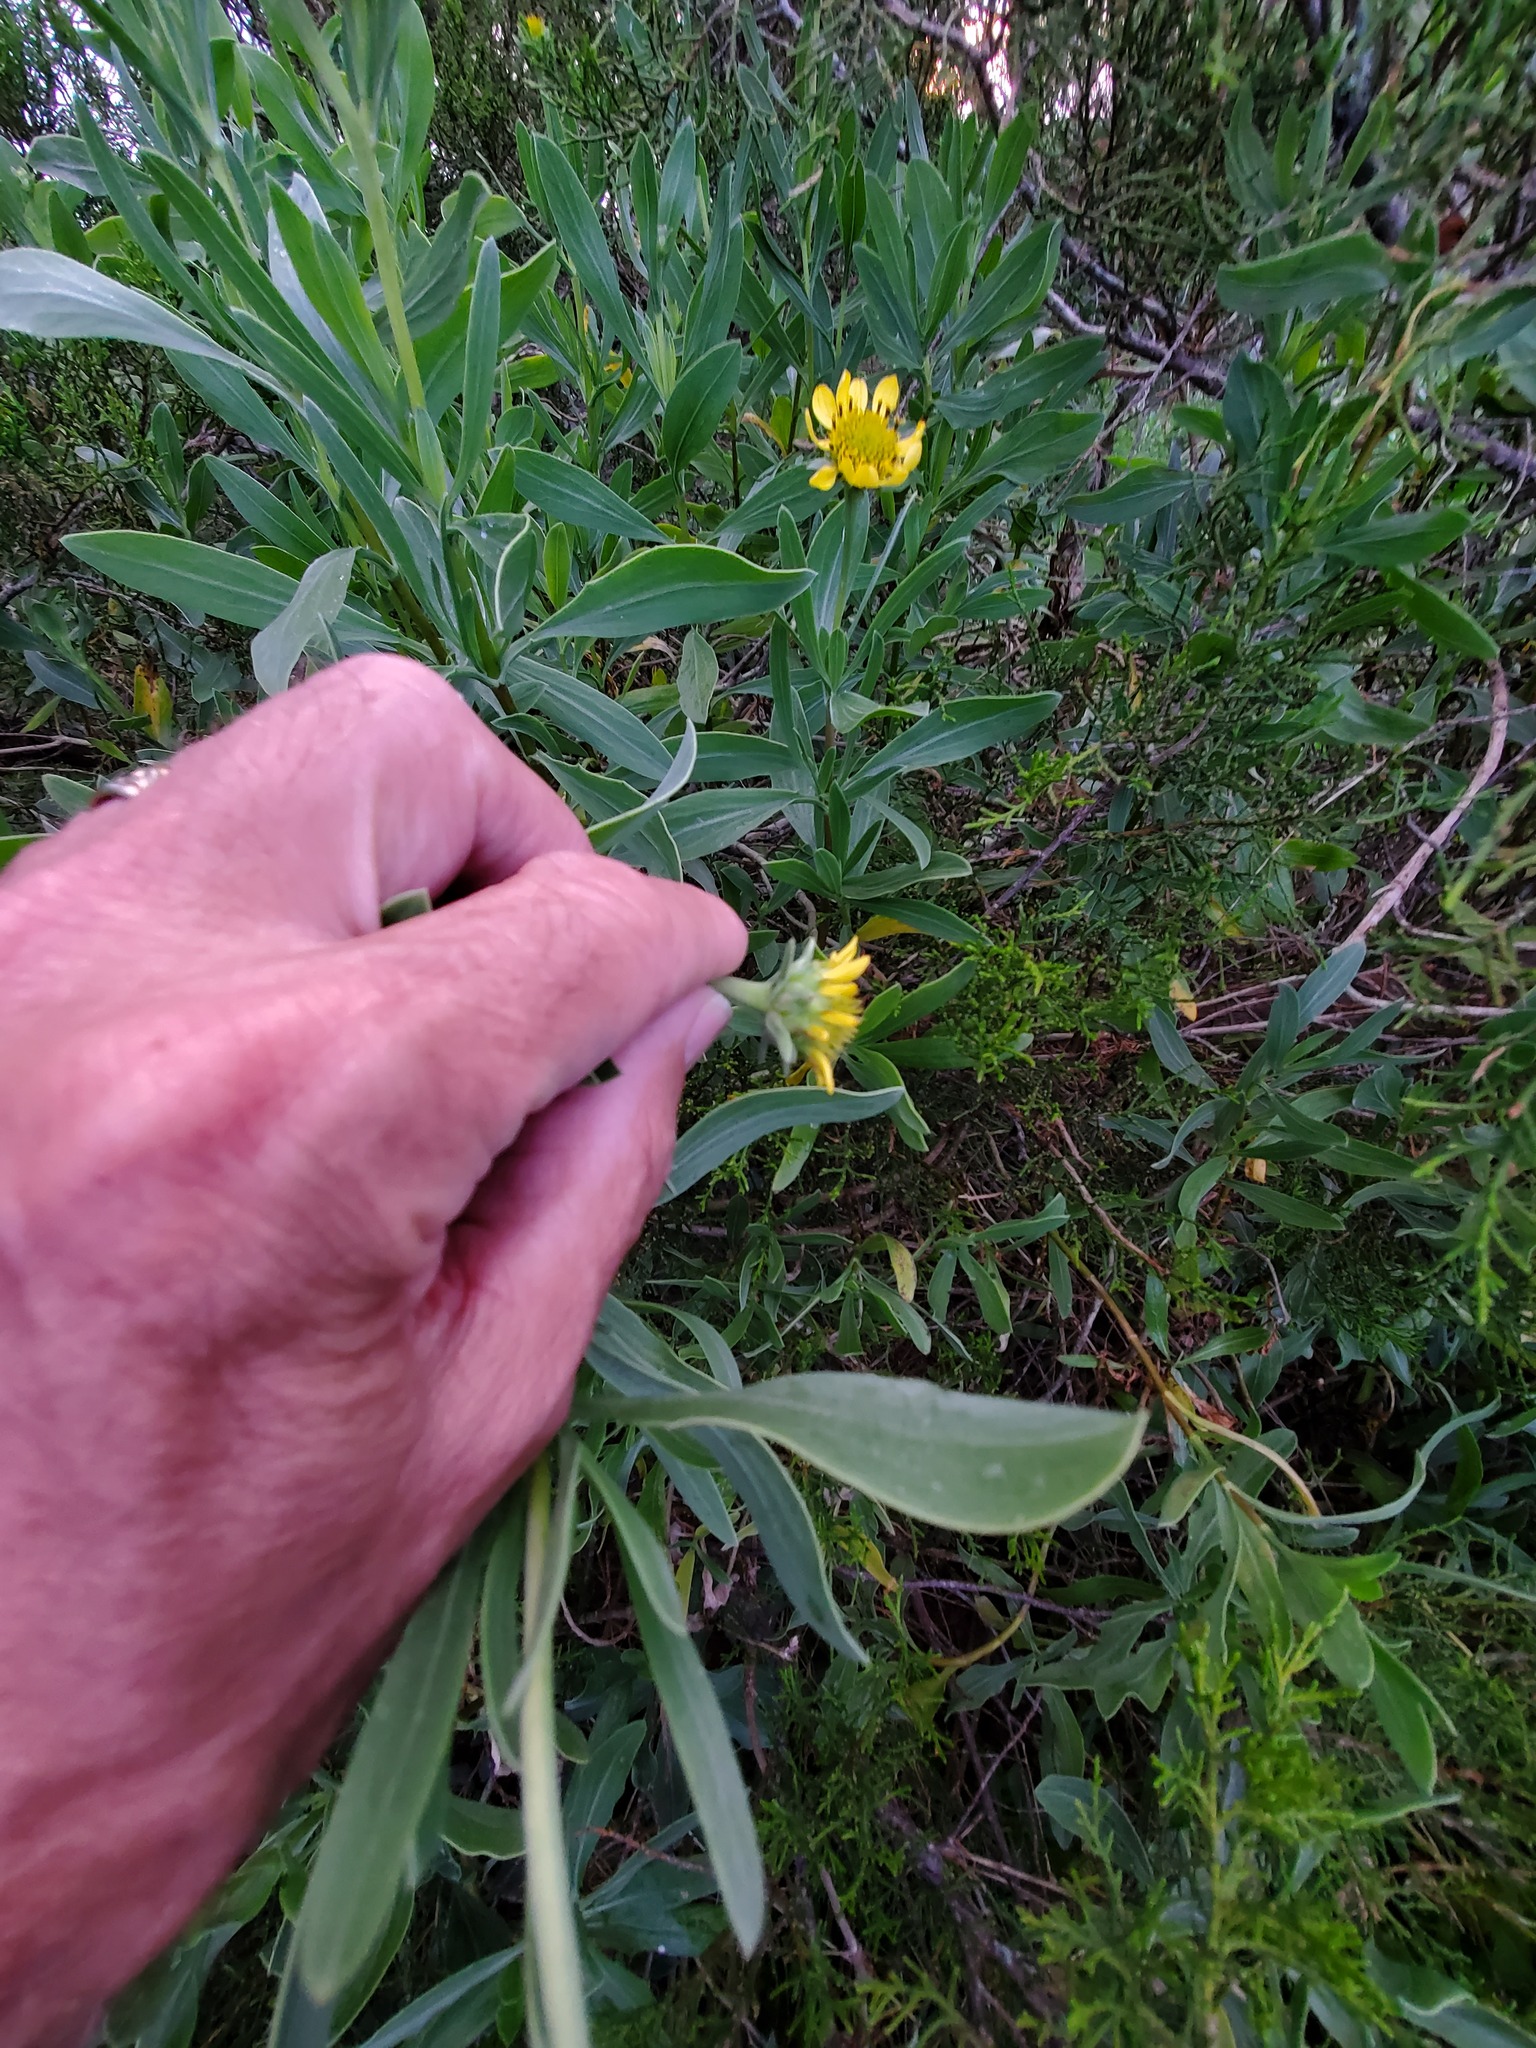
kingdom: Plantae
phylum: Tracheophyta
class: Magnoliopsida
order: Asterales
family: Asteraceae
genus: Borrichia
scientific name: Borrichia frutescens
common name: Sea oxeye
